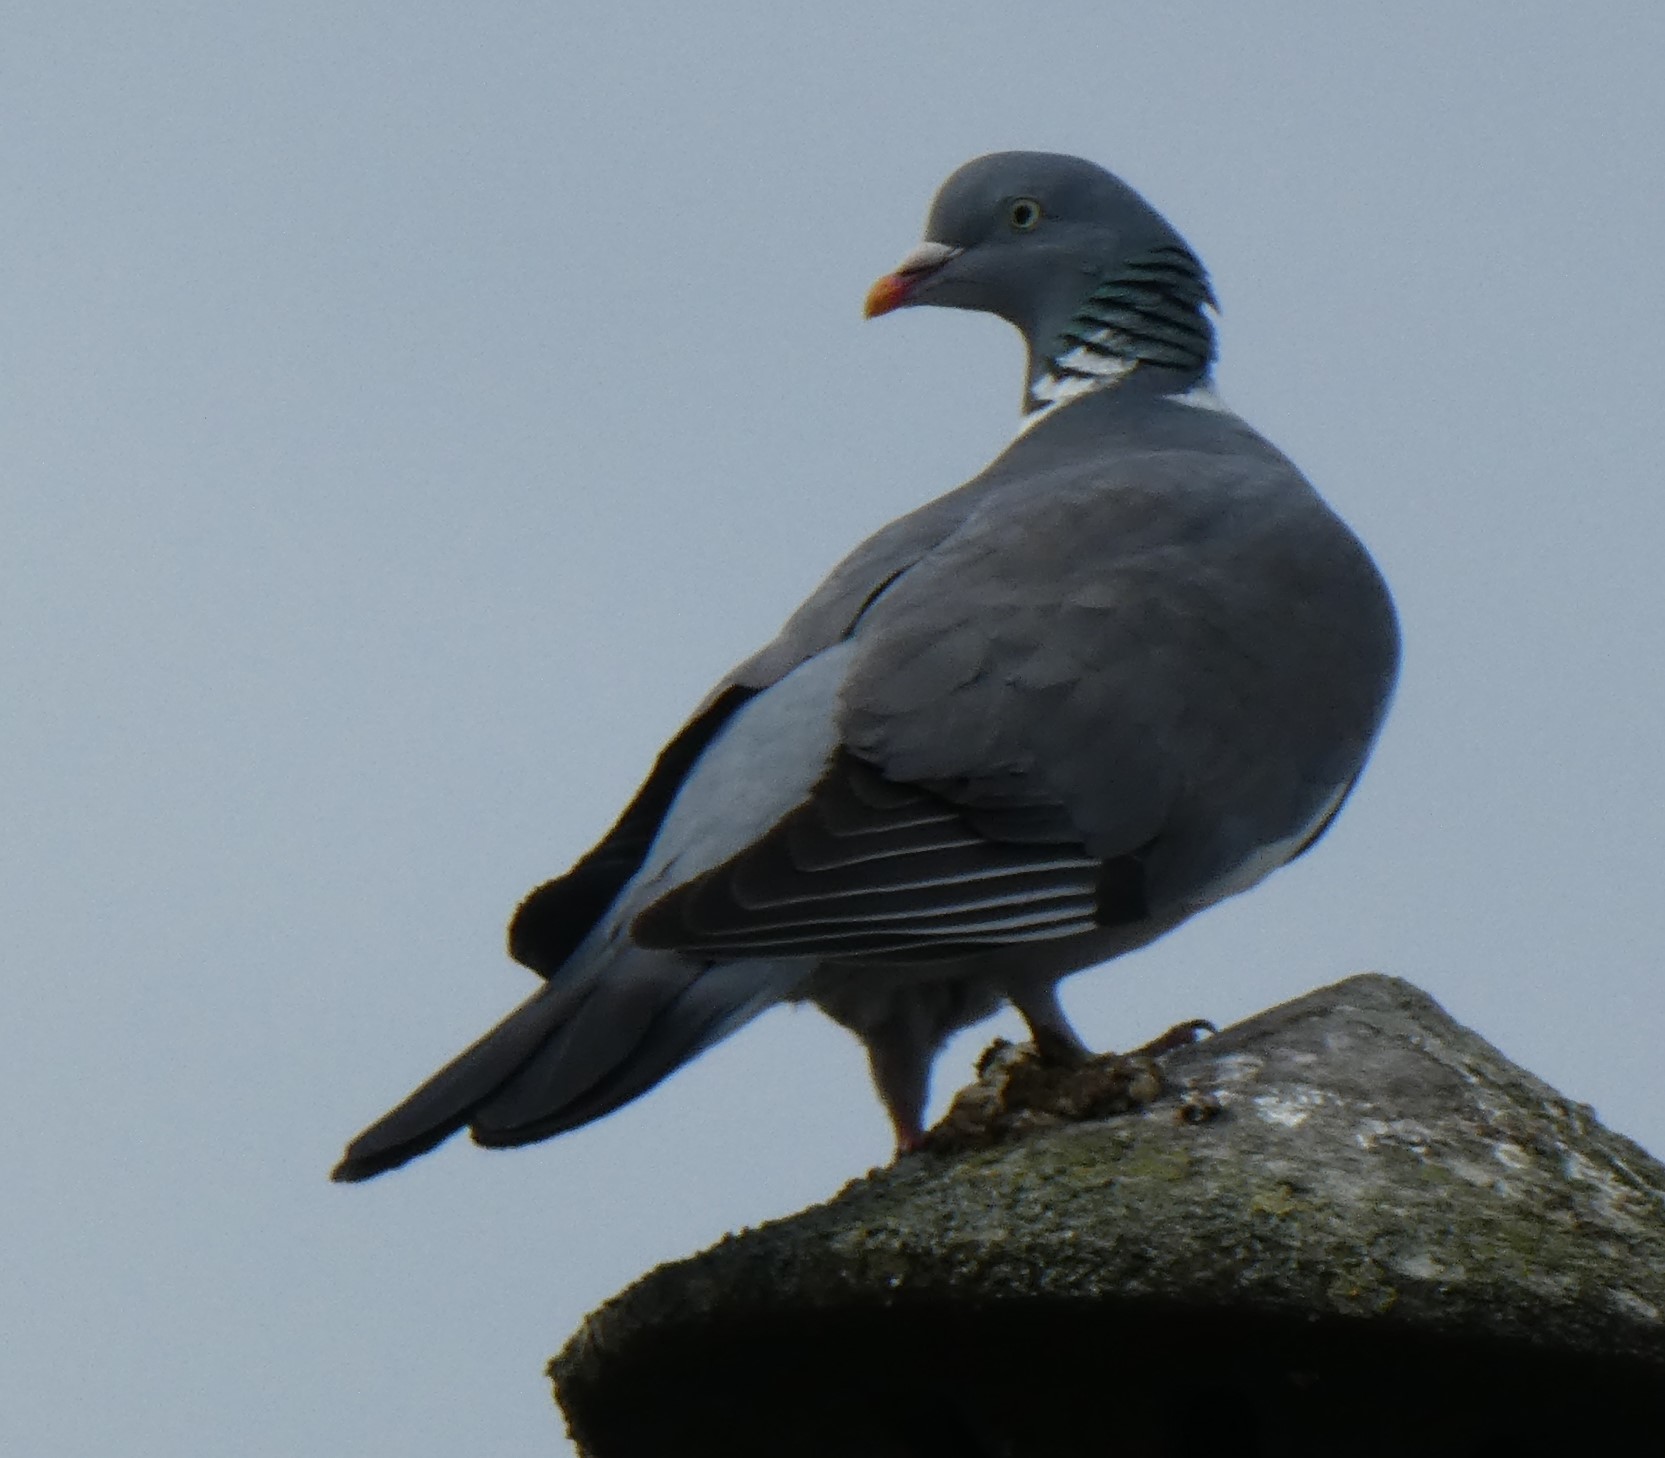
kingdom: Animalia
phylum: Chordata
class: Aves
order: Columbiformes
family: Columbidae
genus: Columba
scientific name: Columba palumbus
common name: Common wood pigeon
